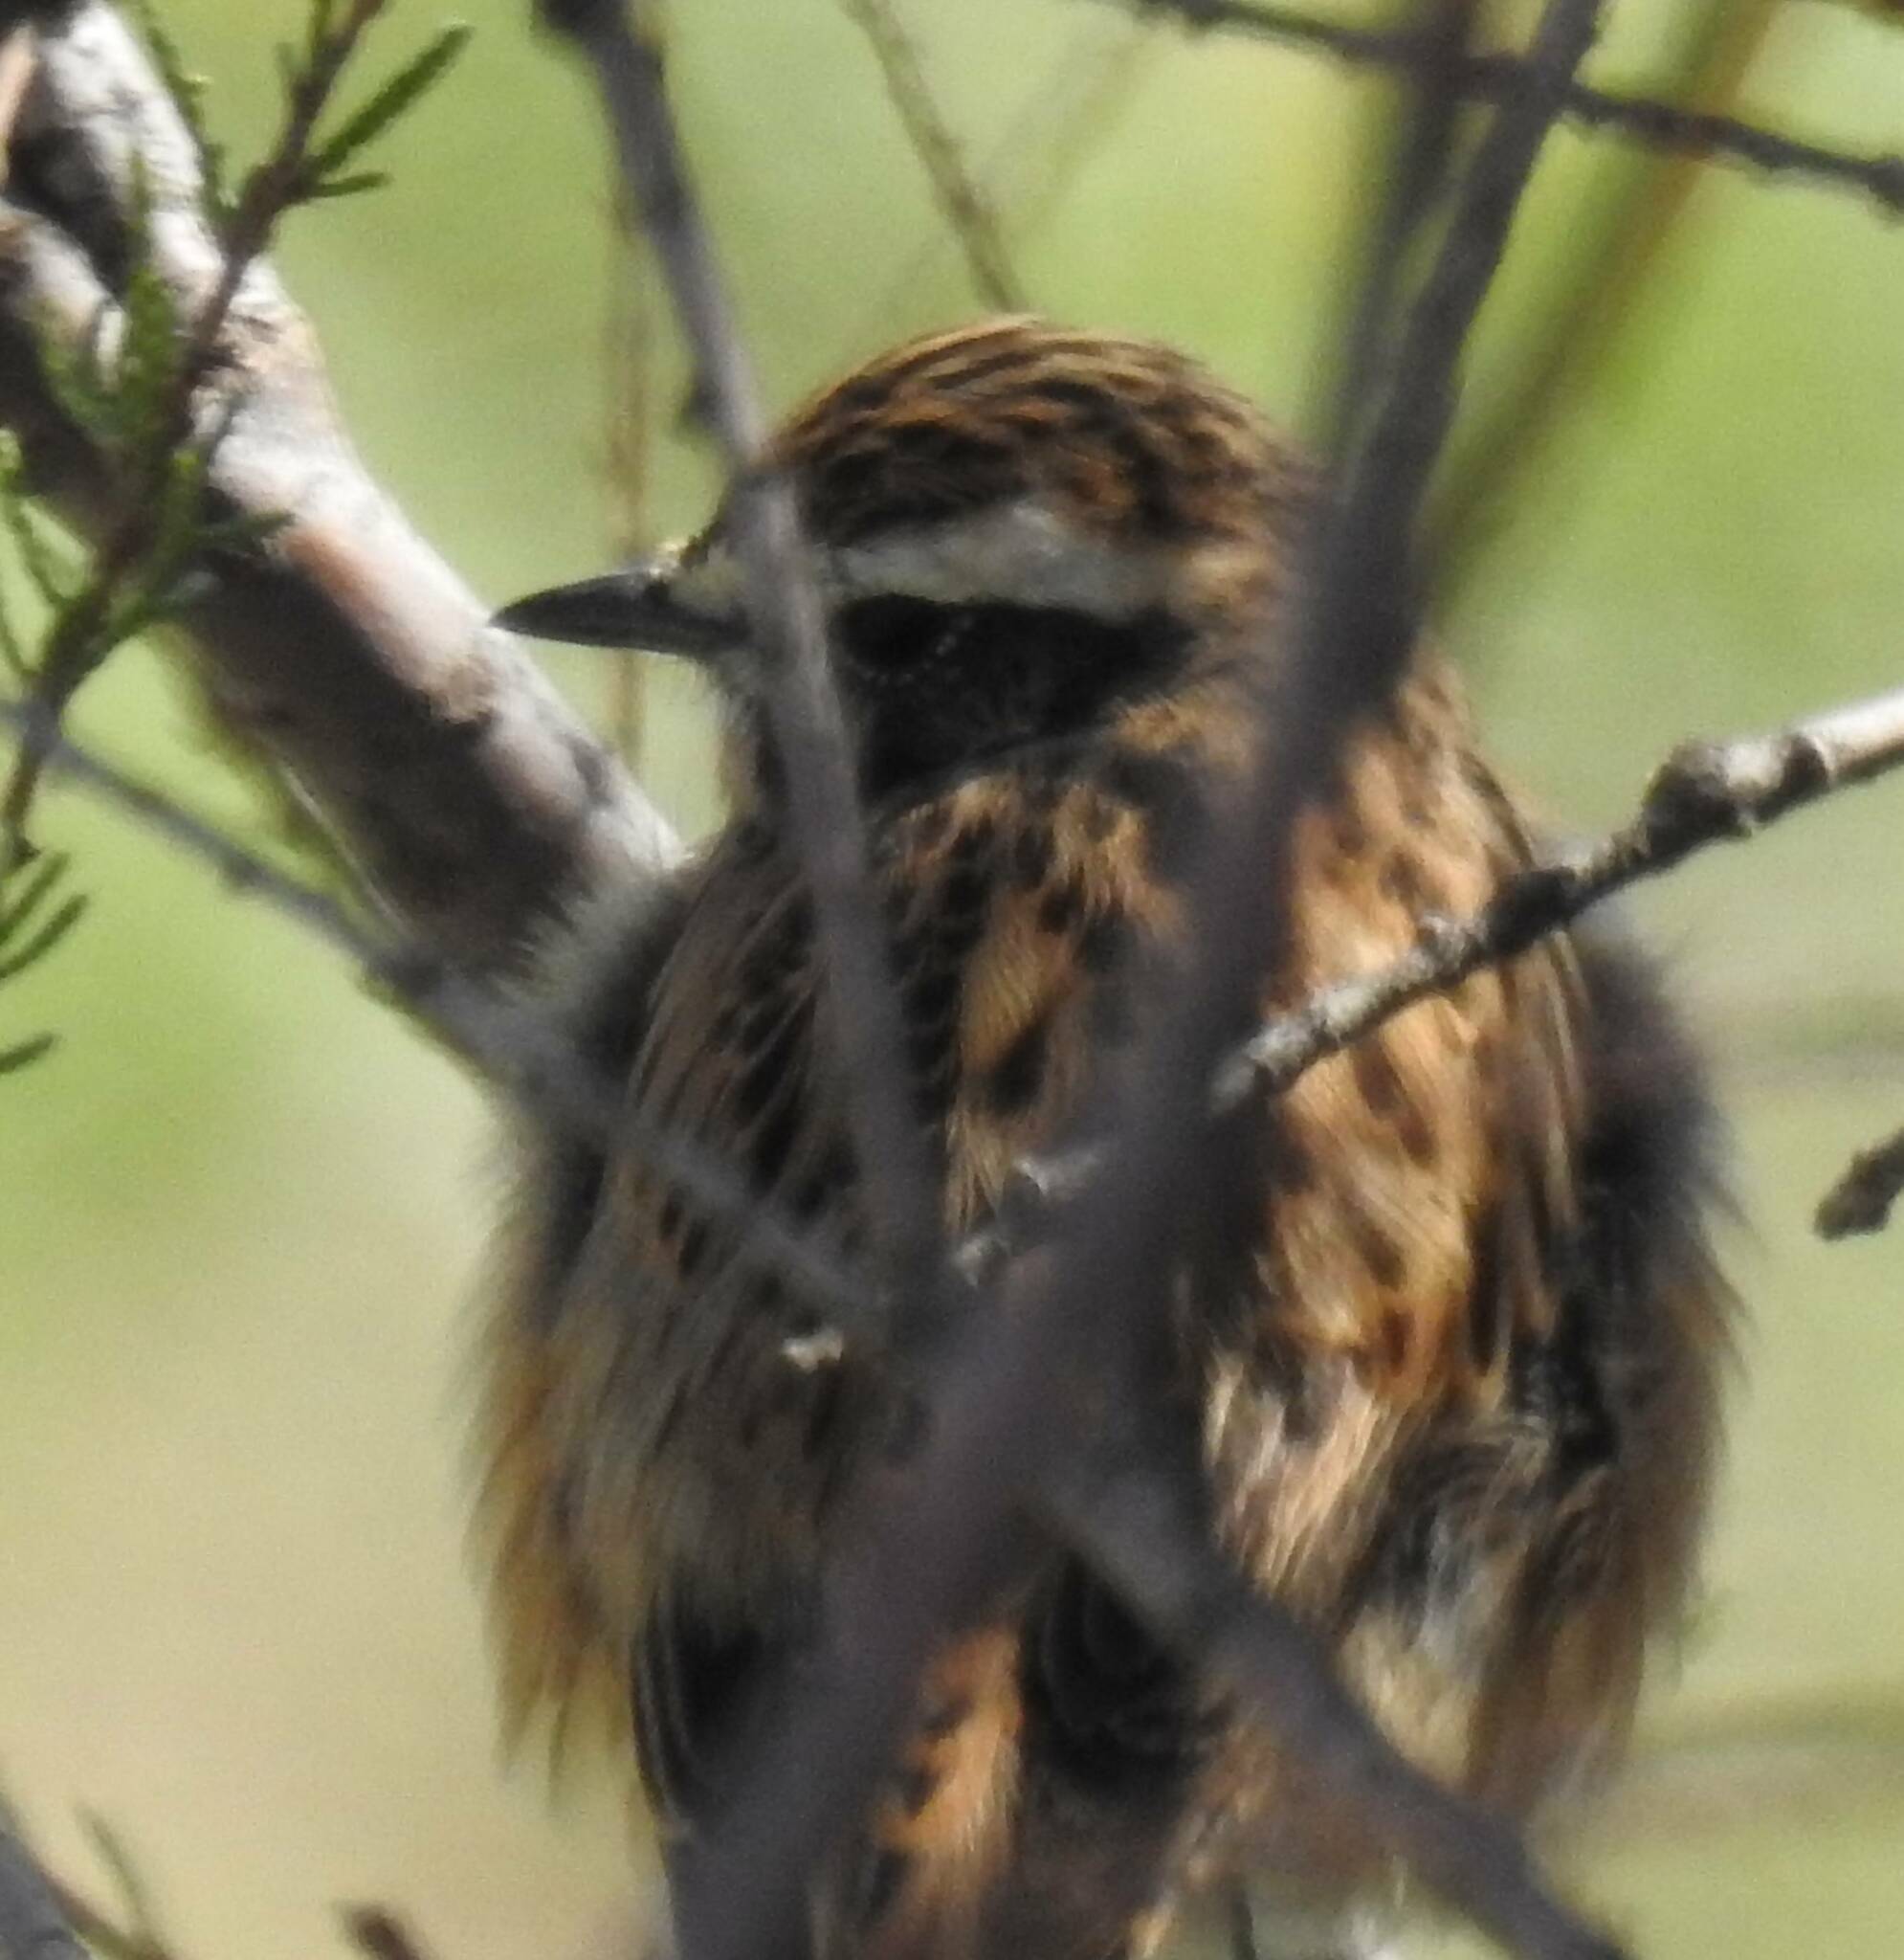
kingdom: Animalia
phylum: Chordata
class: Aves
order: Passeriformes
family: Muscicapidae
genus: Saxicola
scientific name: Saxicola rubetra
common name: Whinchat
